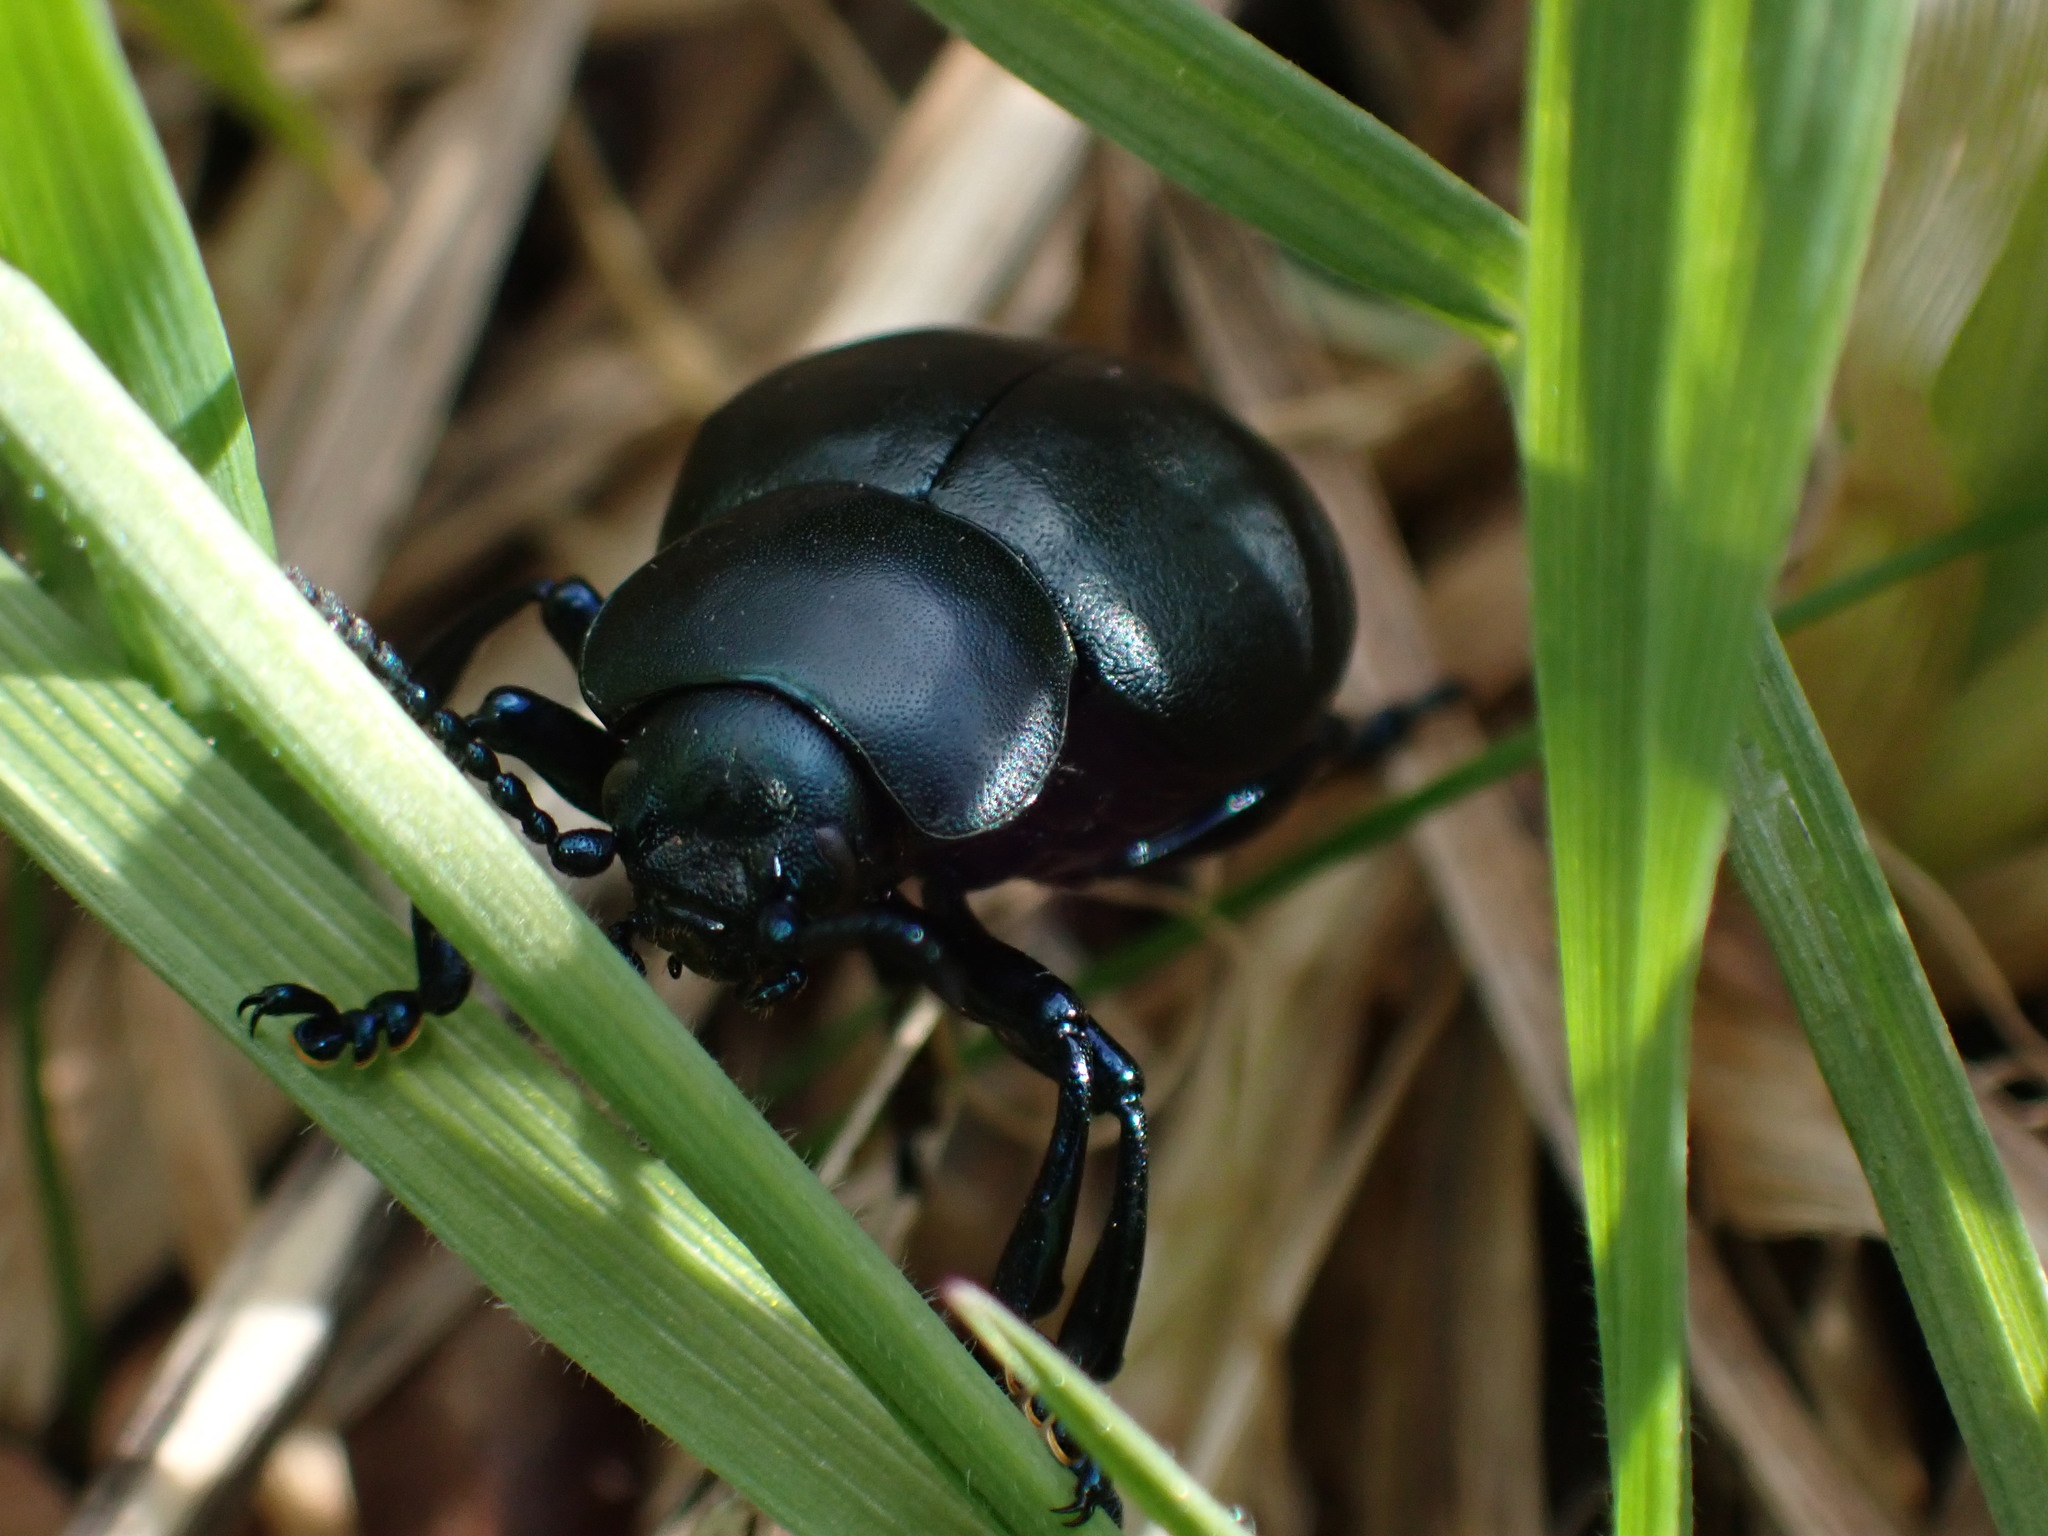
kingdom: Animalia
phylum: Arthropoda
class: Insecta
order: Coleoptera
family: Chrysomelidae
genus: Timarcha
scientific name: Timarcha tenebricosa
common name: Bloody-nosed beetle
